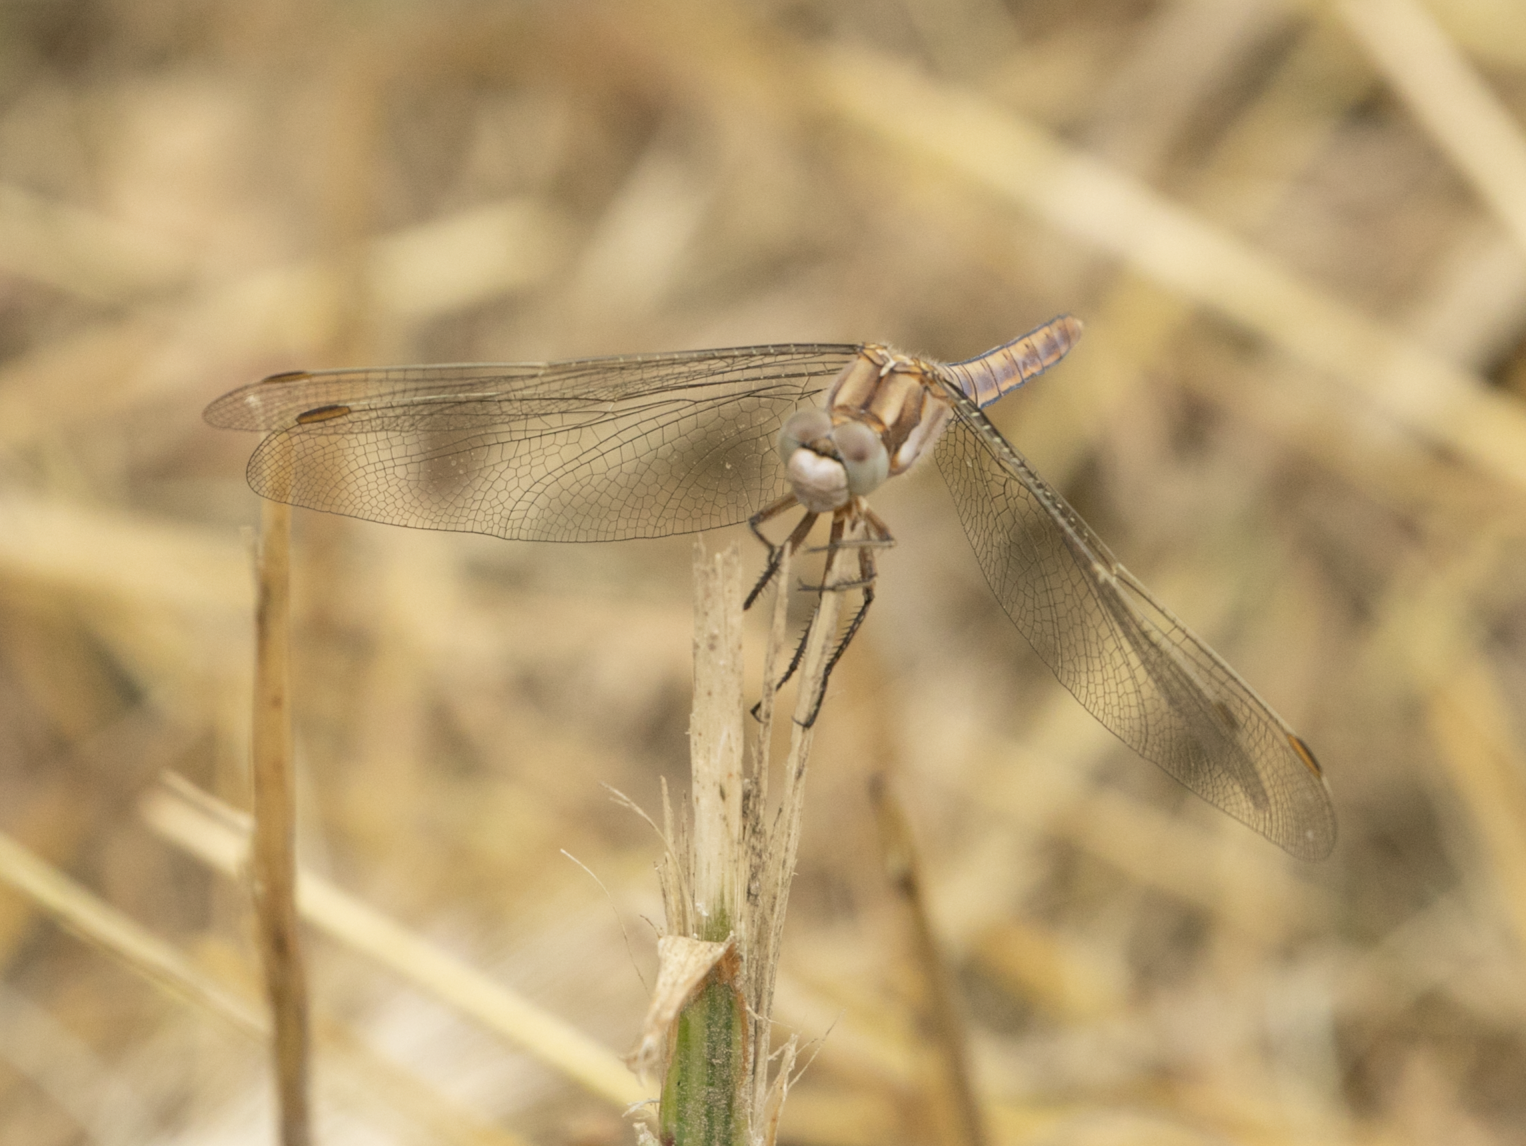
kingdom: Animalia
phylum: Arthropoda
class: Insecta
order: Odonata
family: Libellulidae
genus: Orthetrum
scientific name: Orthetrum brunneum
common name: Southern skimmer
